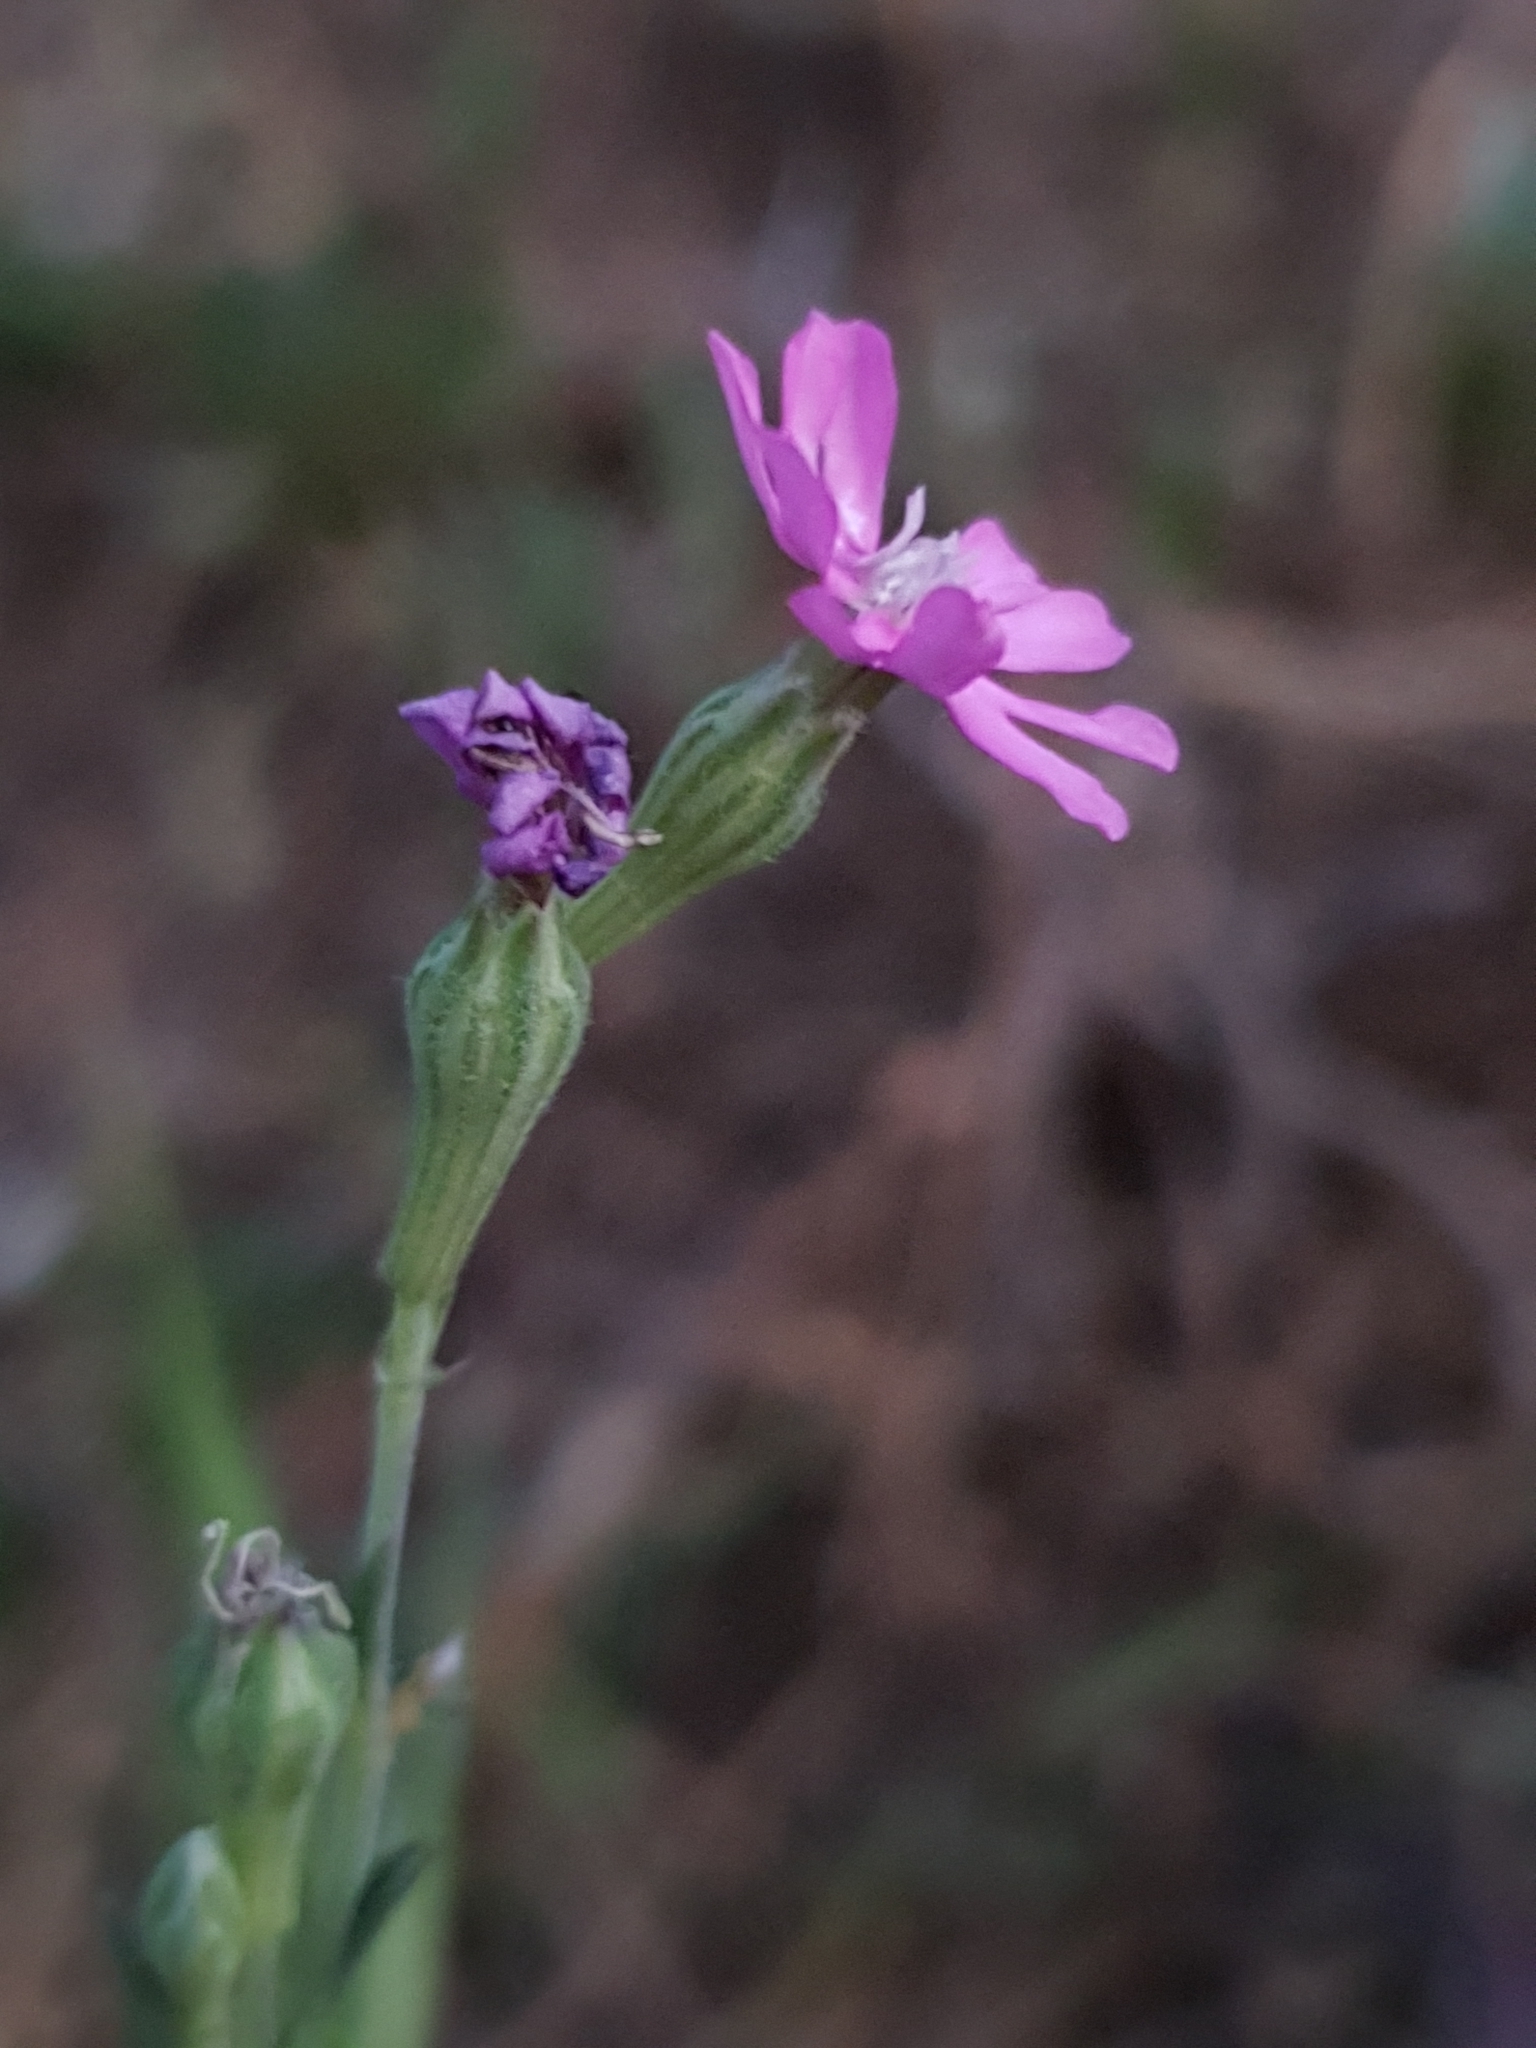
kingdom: Plantae
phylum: Tracheophyta
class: Magnoliopsida
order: Caryophyllales
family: Caryophyllaceae
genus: Silene
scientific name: Silene colorata
